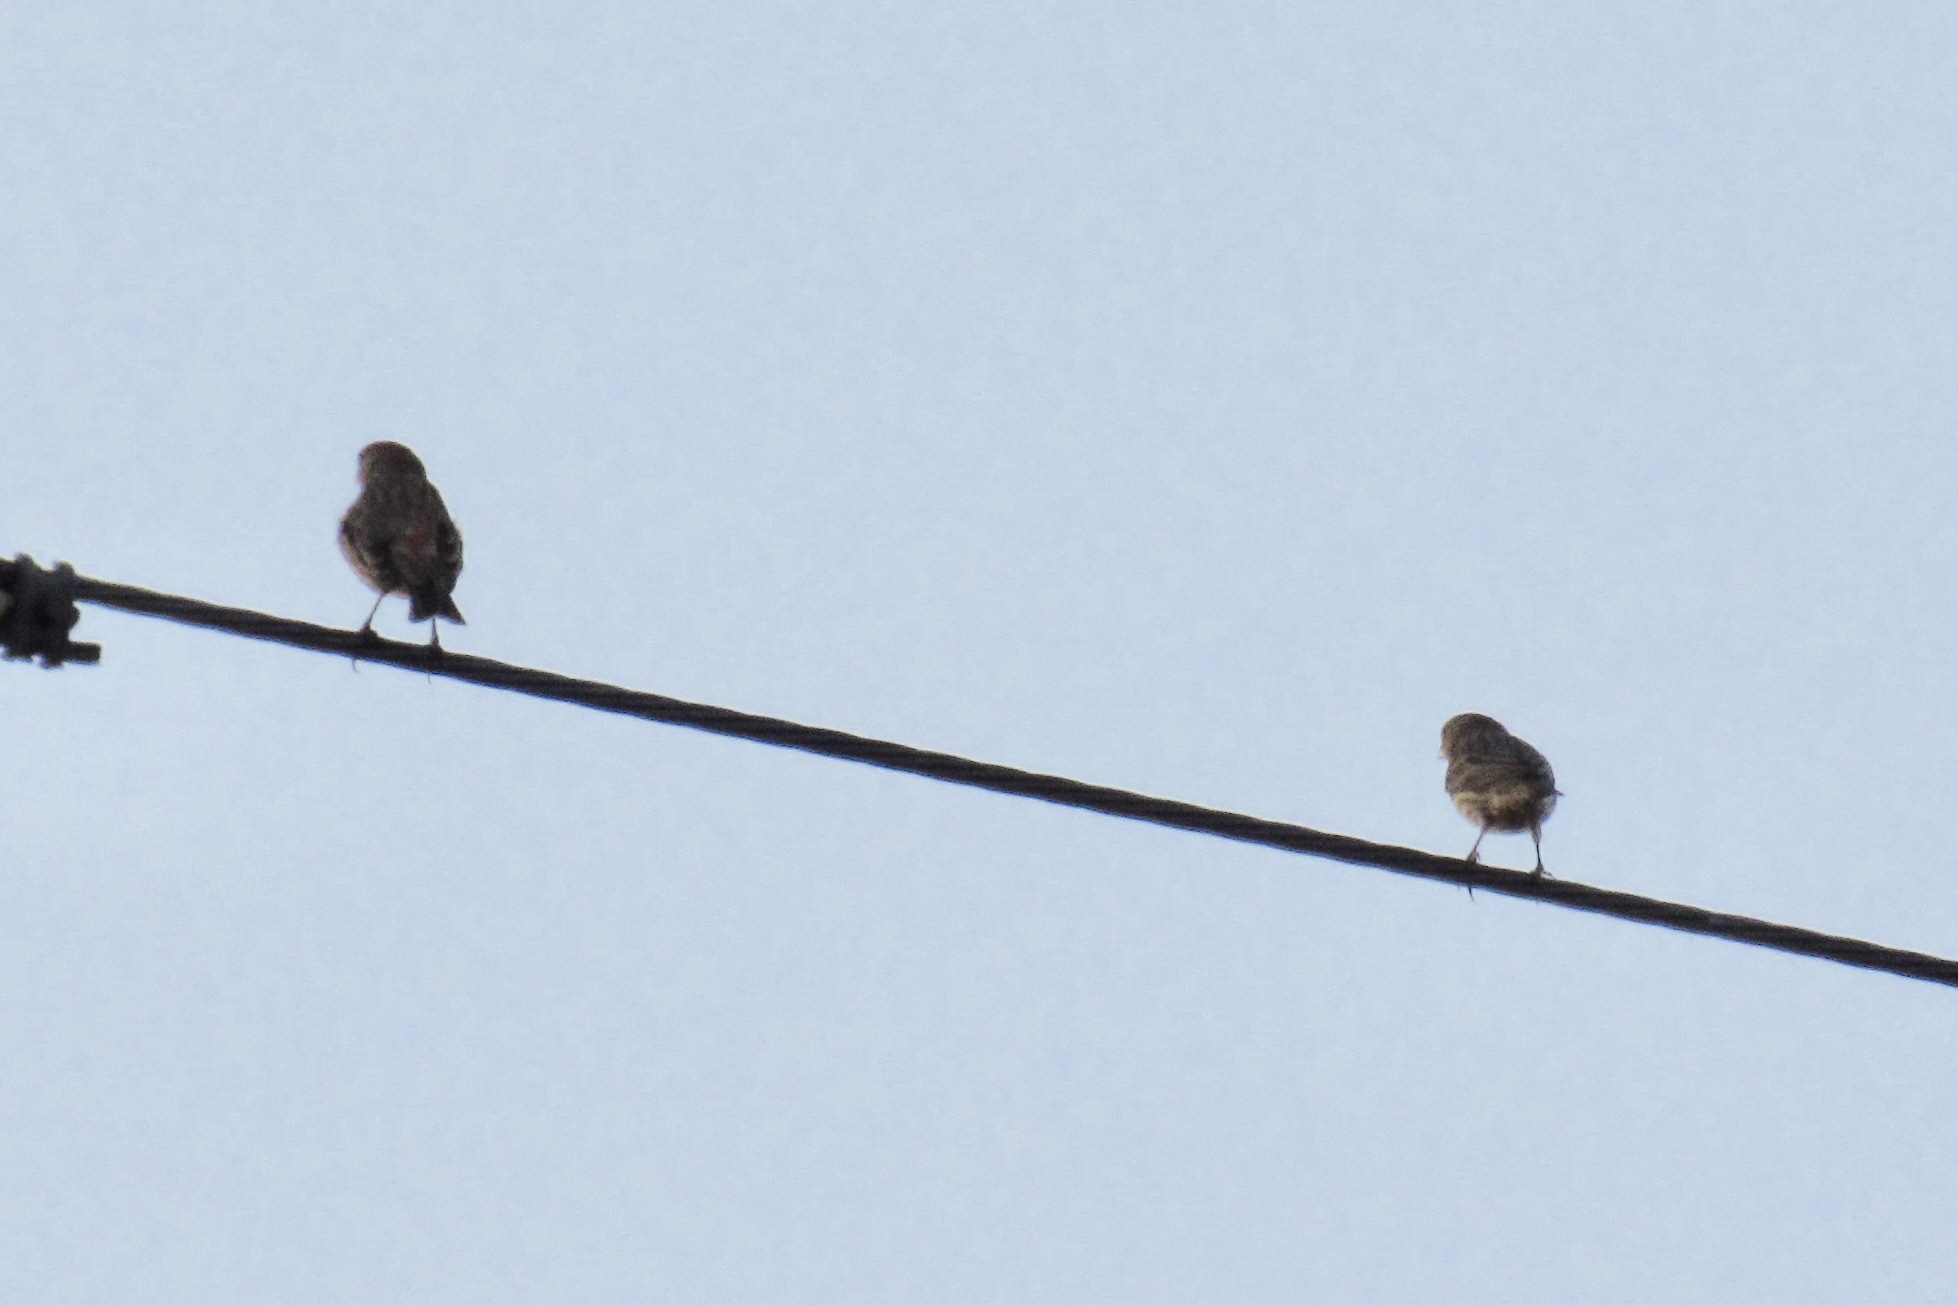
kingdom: Animalia
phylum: Chordata
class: Aves
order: Passeriformes
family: Fringillidae
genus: Haemorhous
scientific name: Haemorhous mexicanus
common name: House finch
